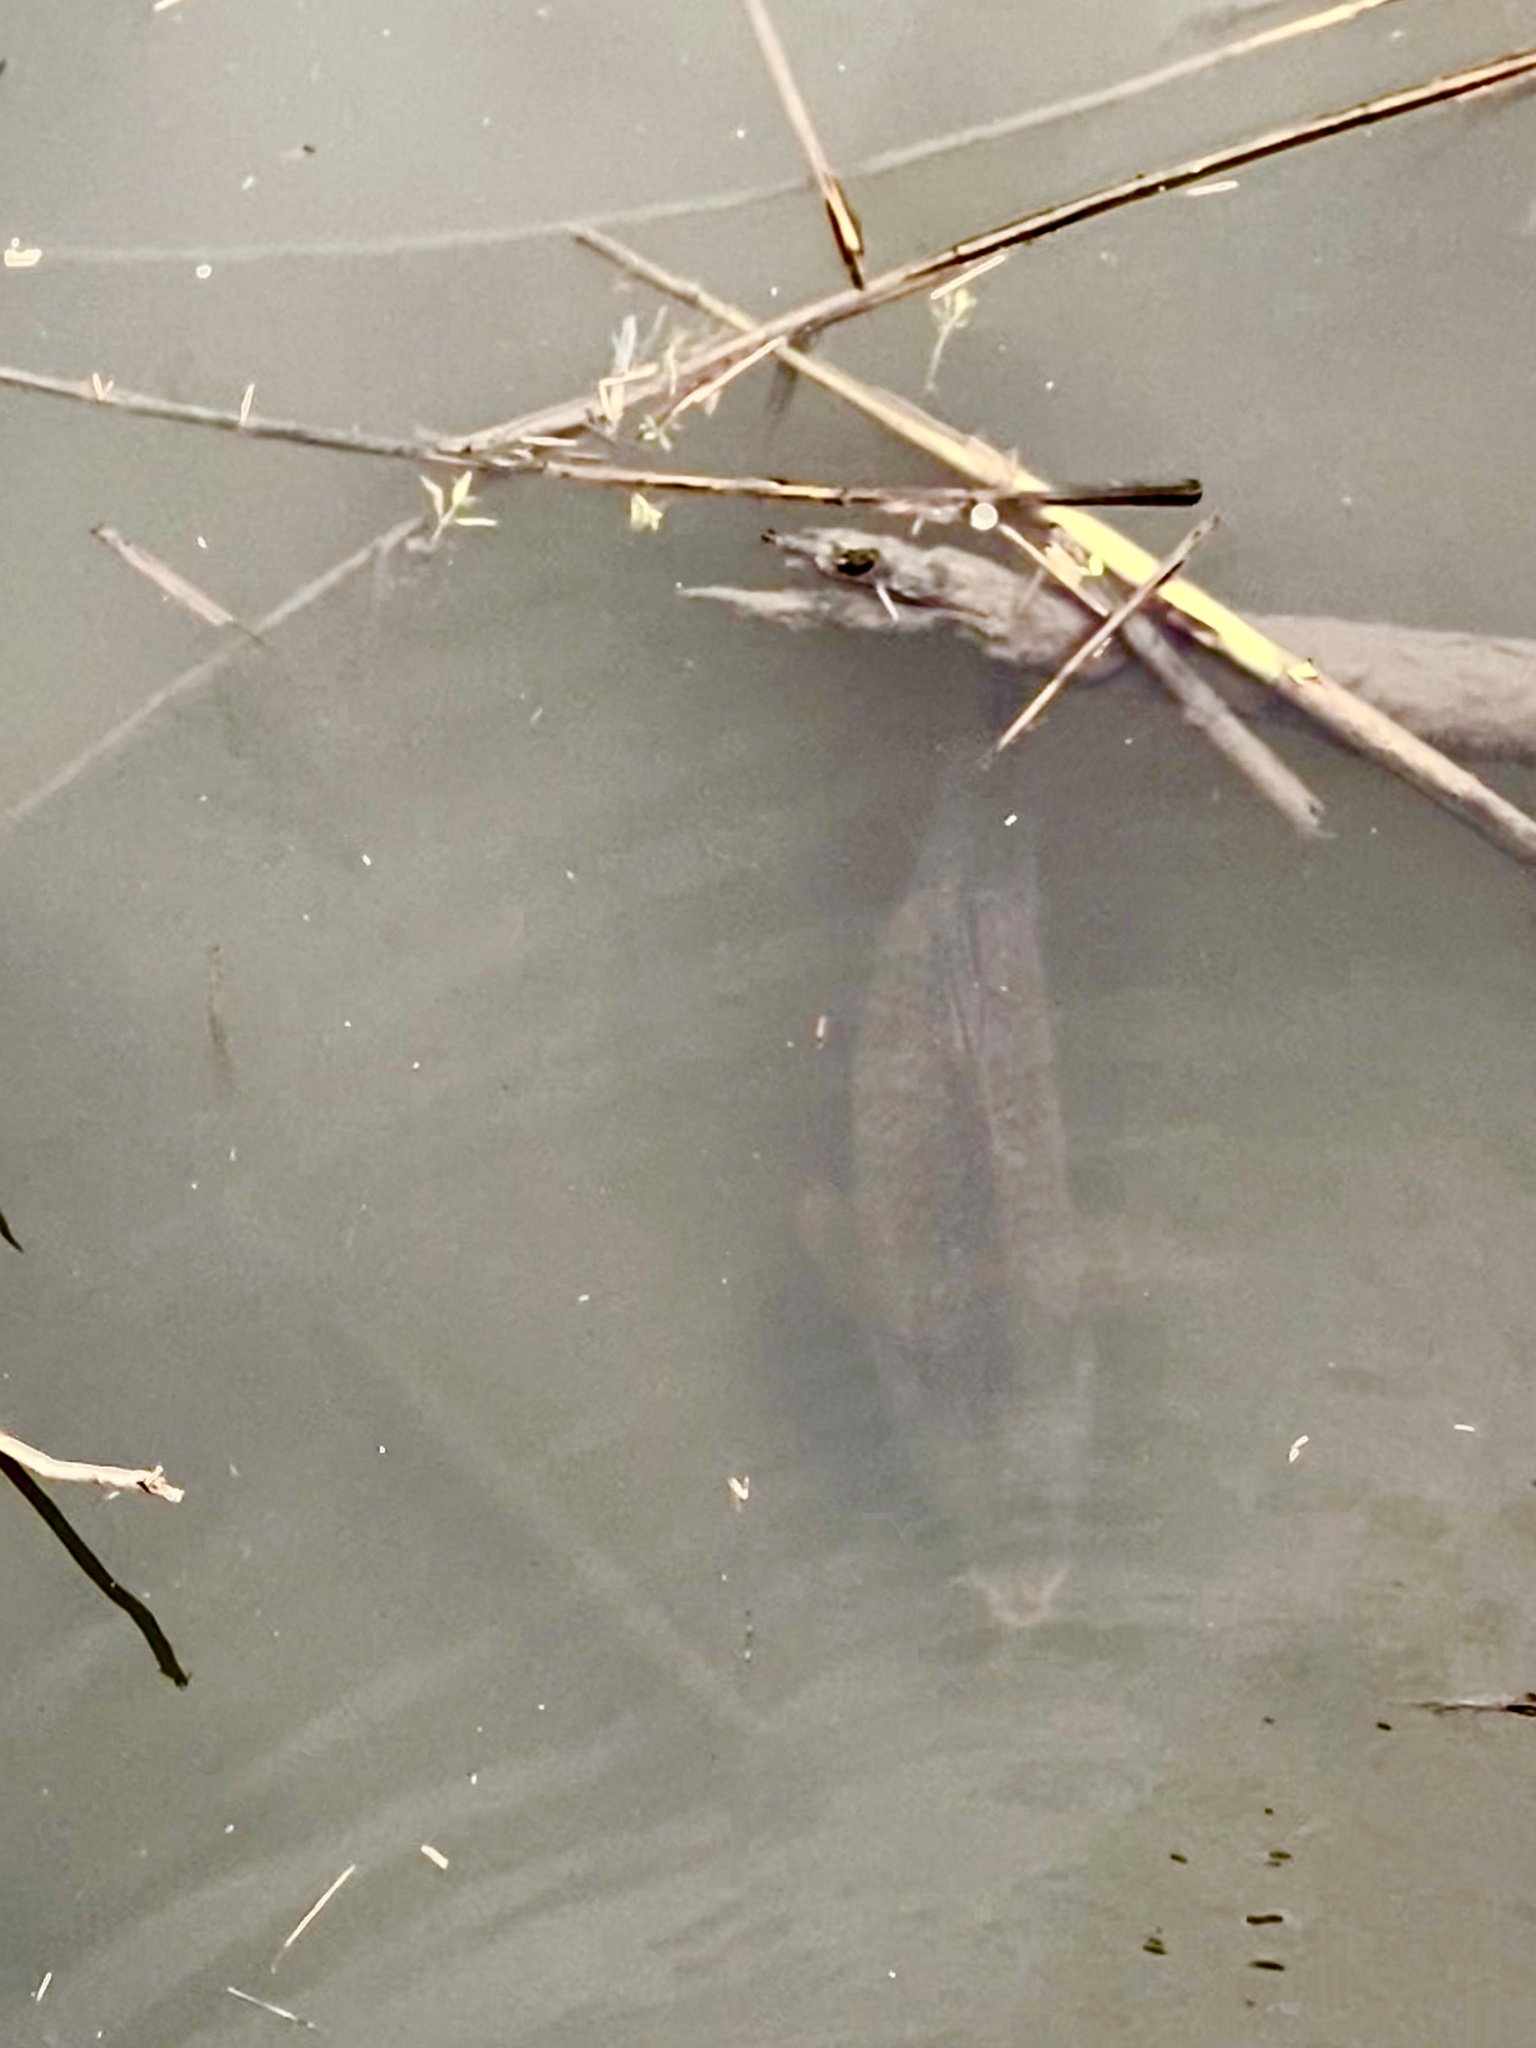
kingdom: Animalia
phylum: Chordata
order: Cypriniformes
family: Cyprinidae
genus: Cyprinus
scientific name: Cyprinus carpio
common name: Common carp
